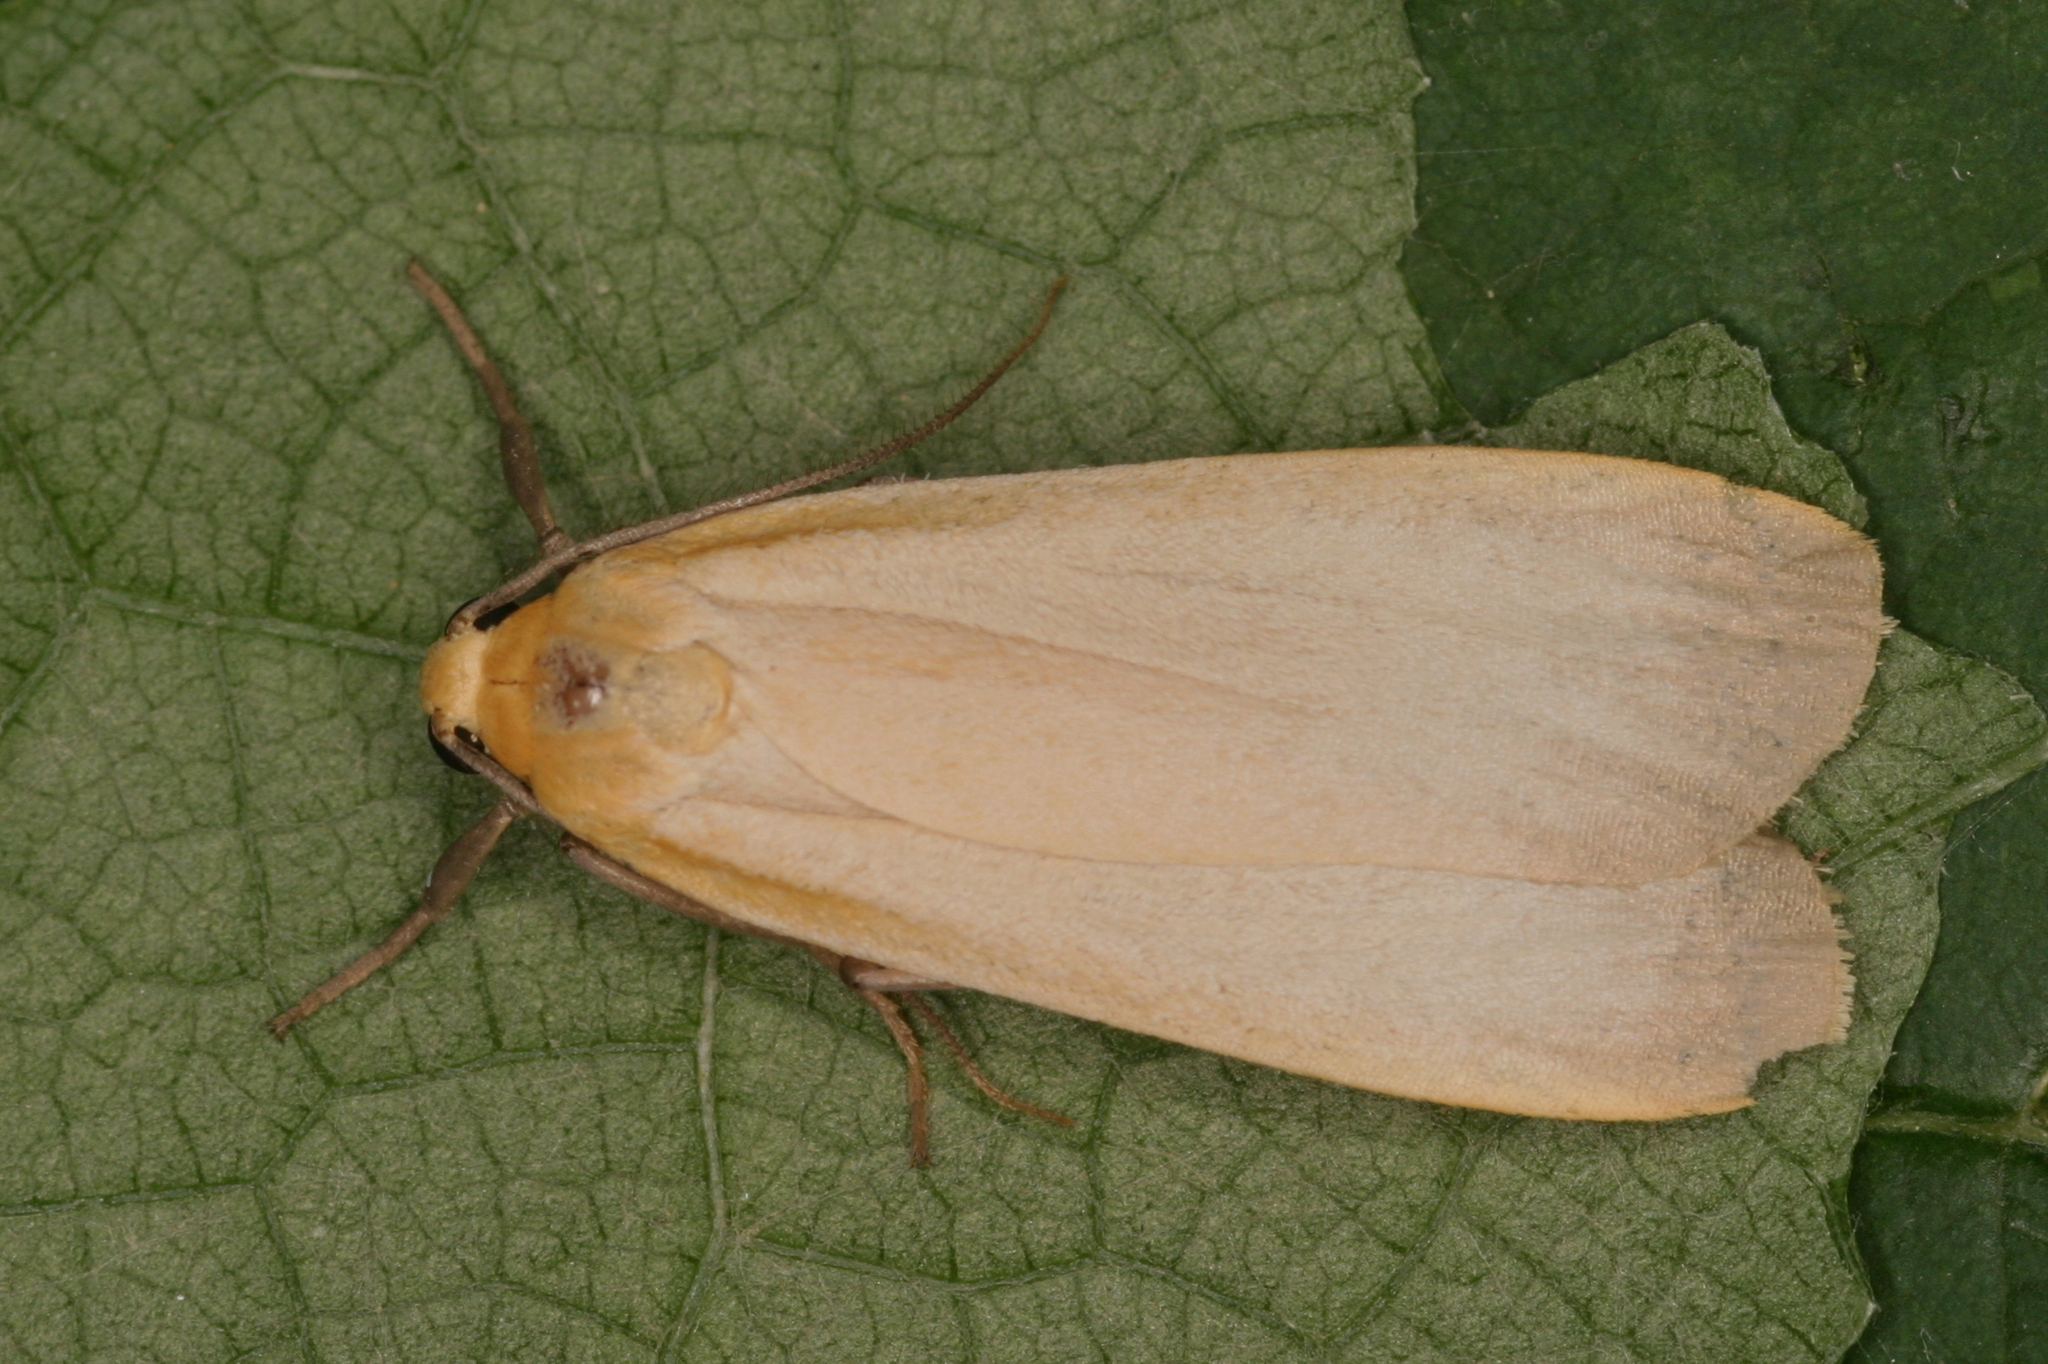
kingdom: Animalia
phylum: Arthropoda
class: Insecta
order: Lepidoptera
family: Erebidae
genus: Katha
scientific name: Katha depressa
